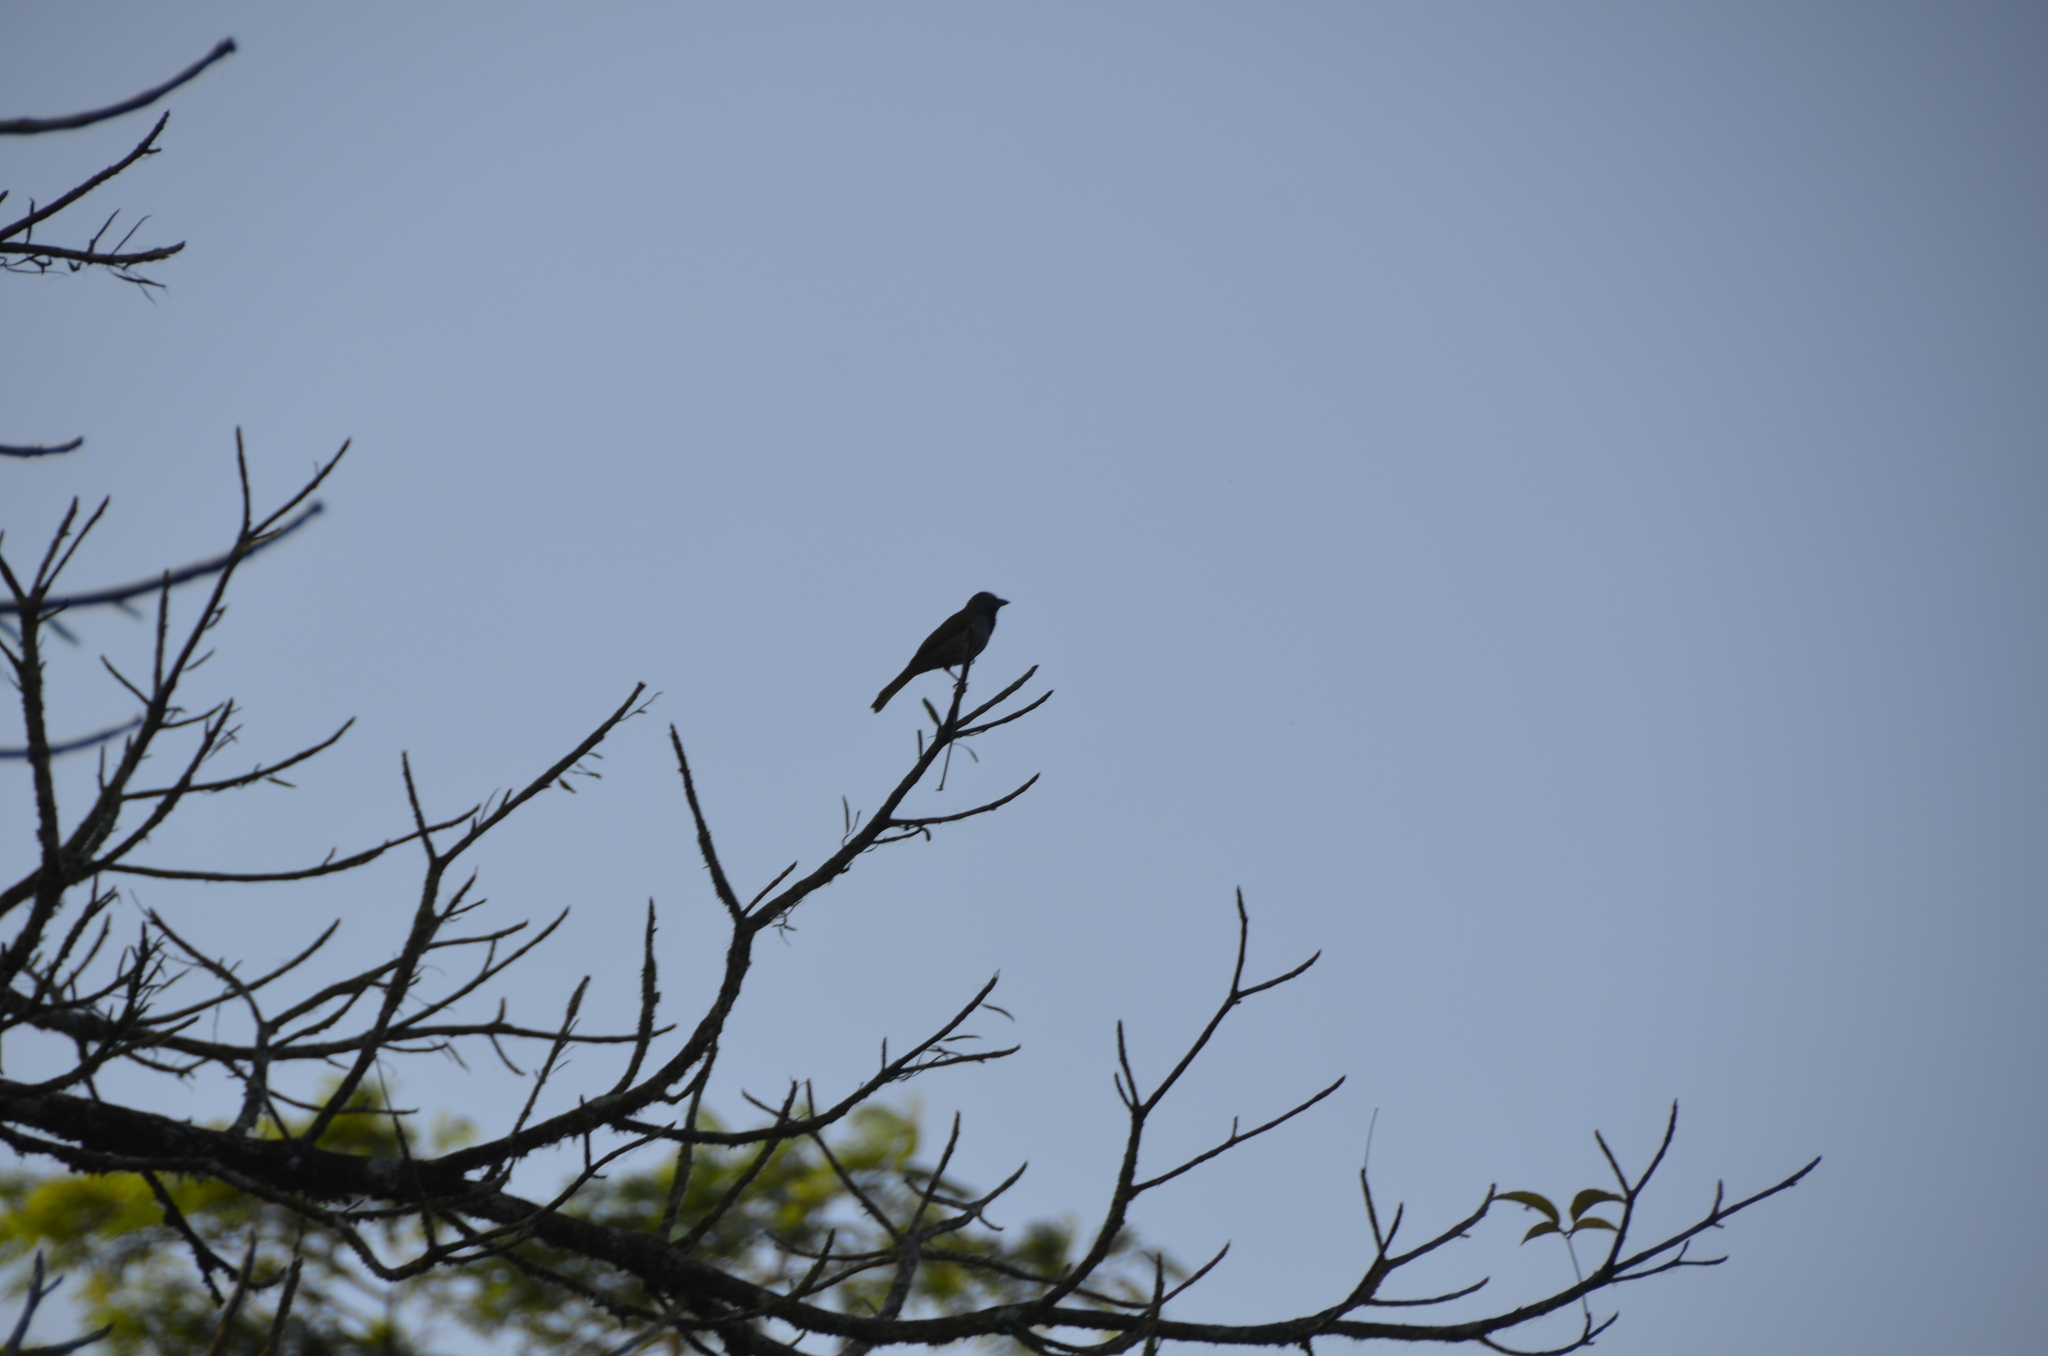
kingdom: Animalia
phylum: Chordata
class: Aves
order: Passeriformes
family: Thraupidae
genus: Saltator
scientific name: Saltator maximus
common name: Buff-throated saltator
